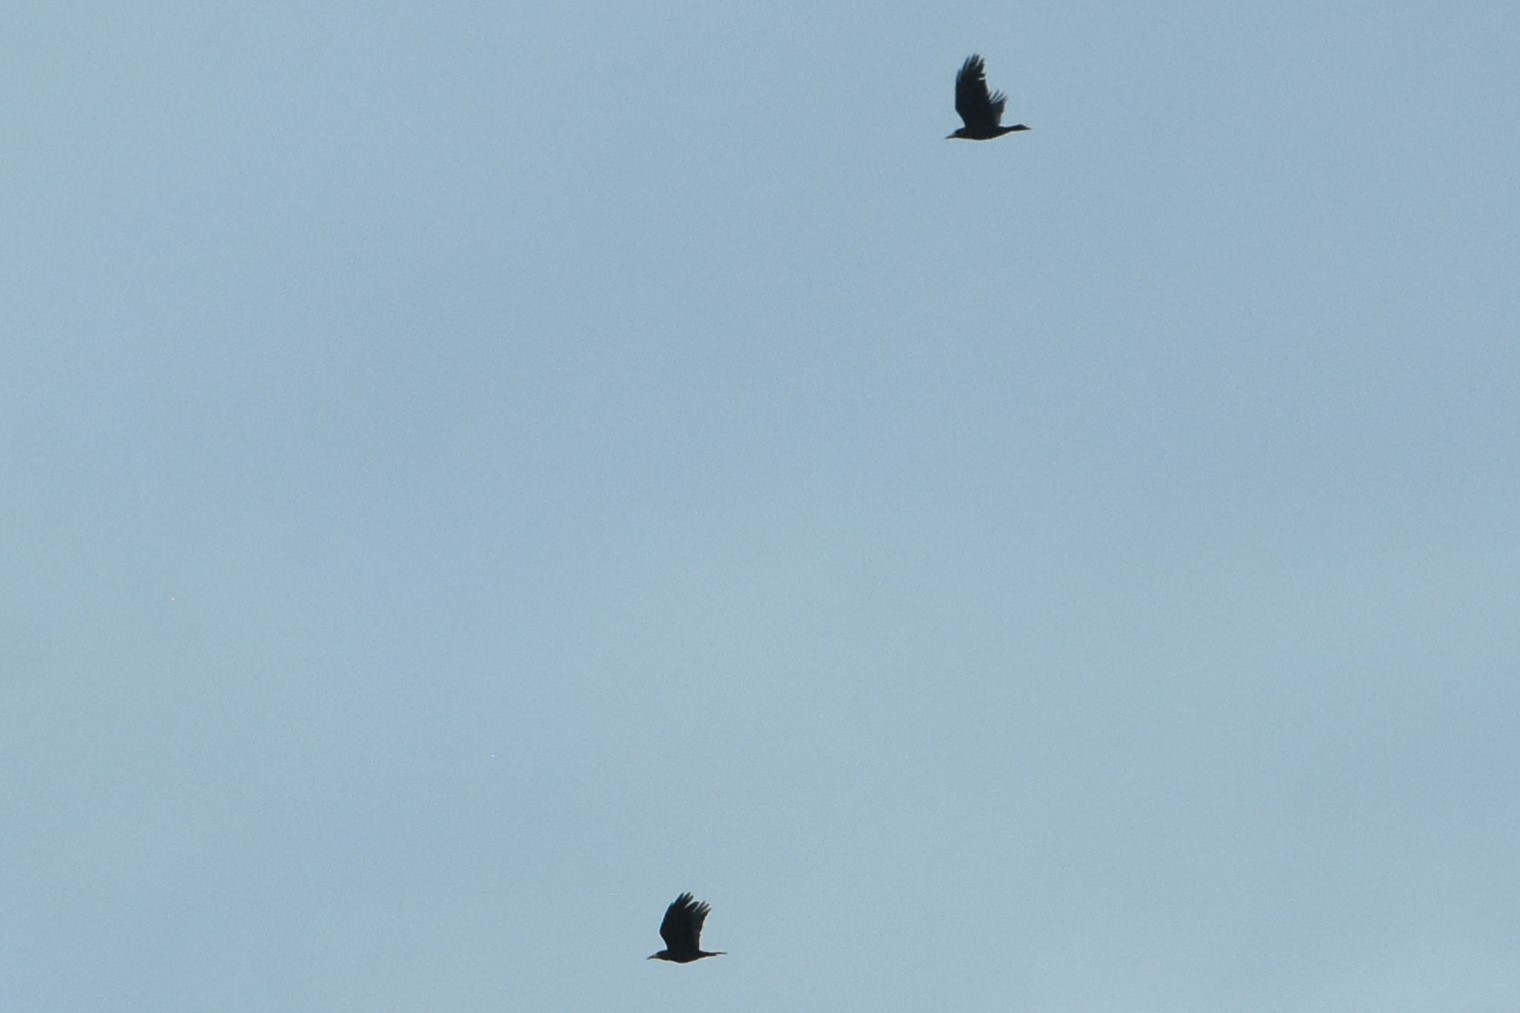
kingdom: Animalia
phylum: Chordata
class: Aves
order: Passeriformes
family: Corvidae
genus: Corvus
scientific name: Corvus corax
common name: Common raven
